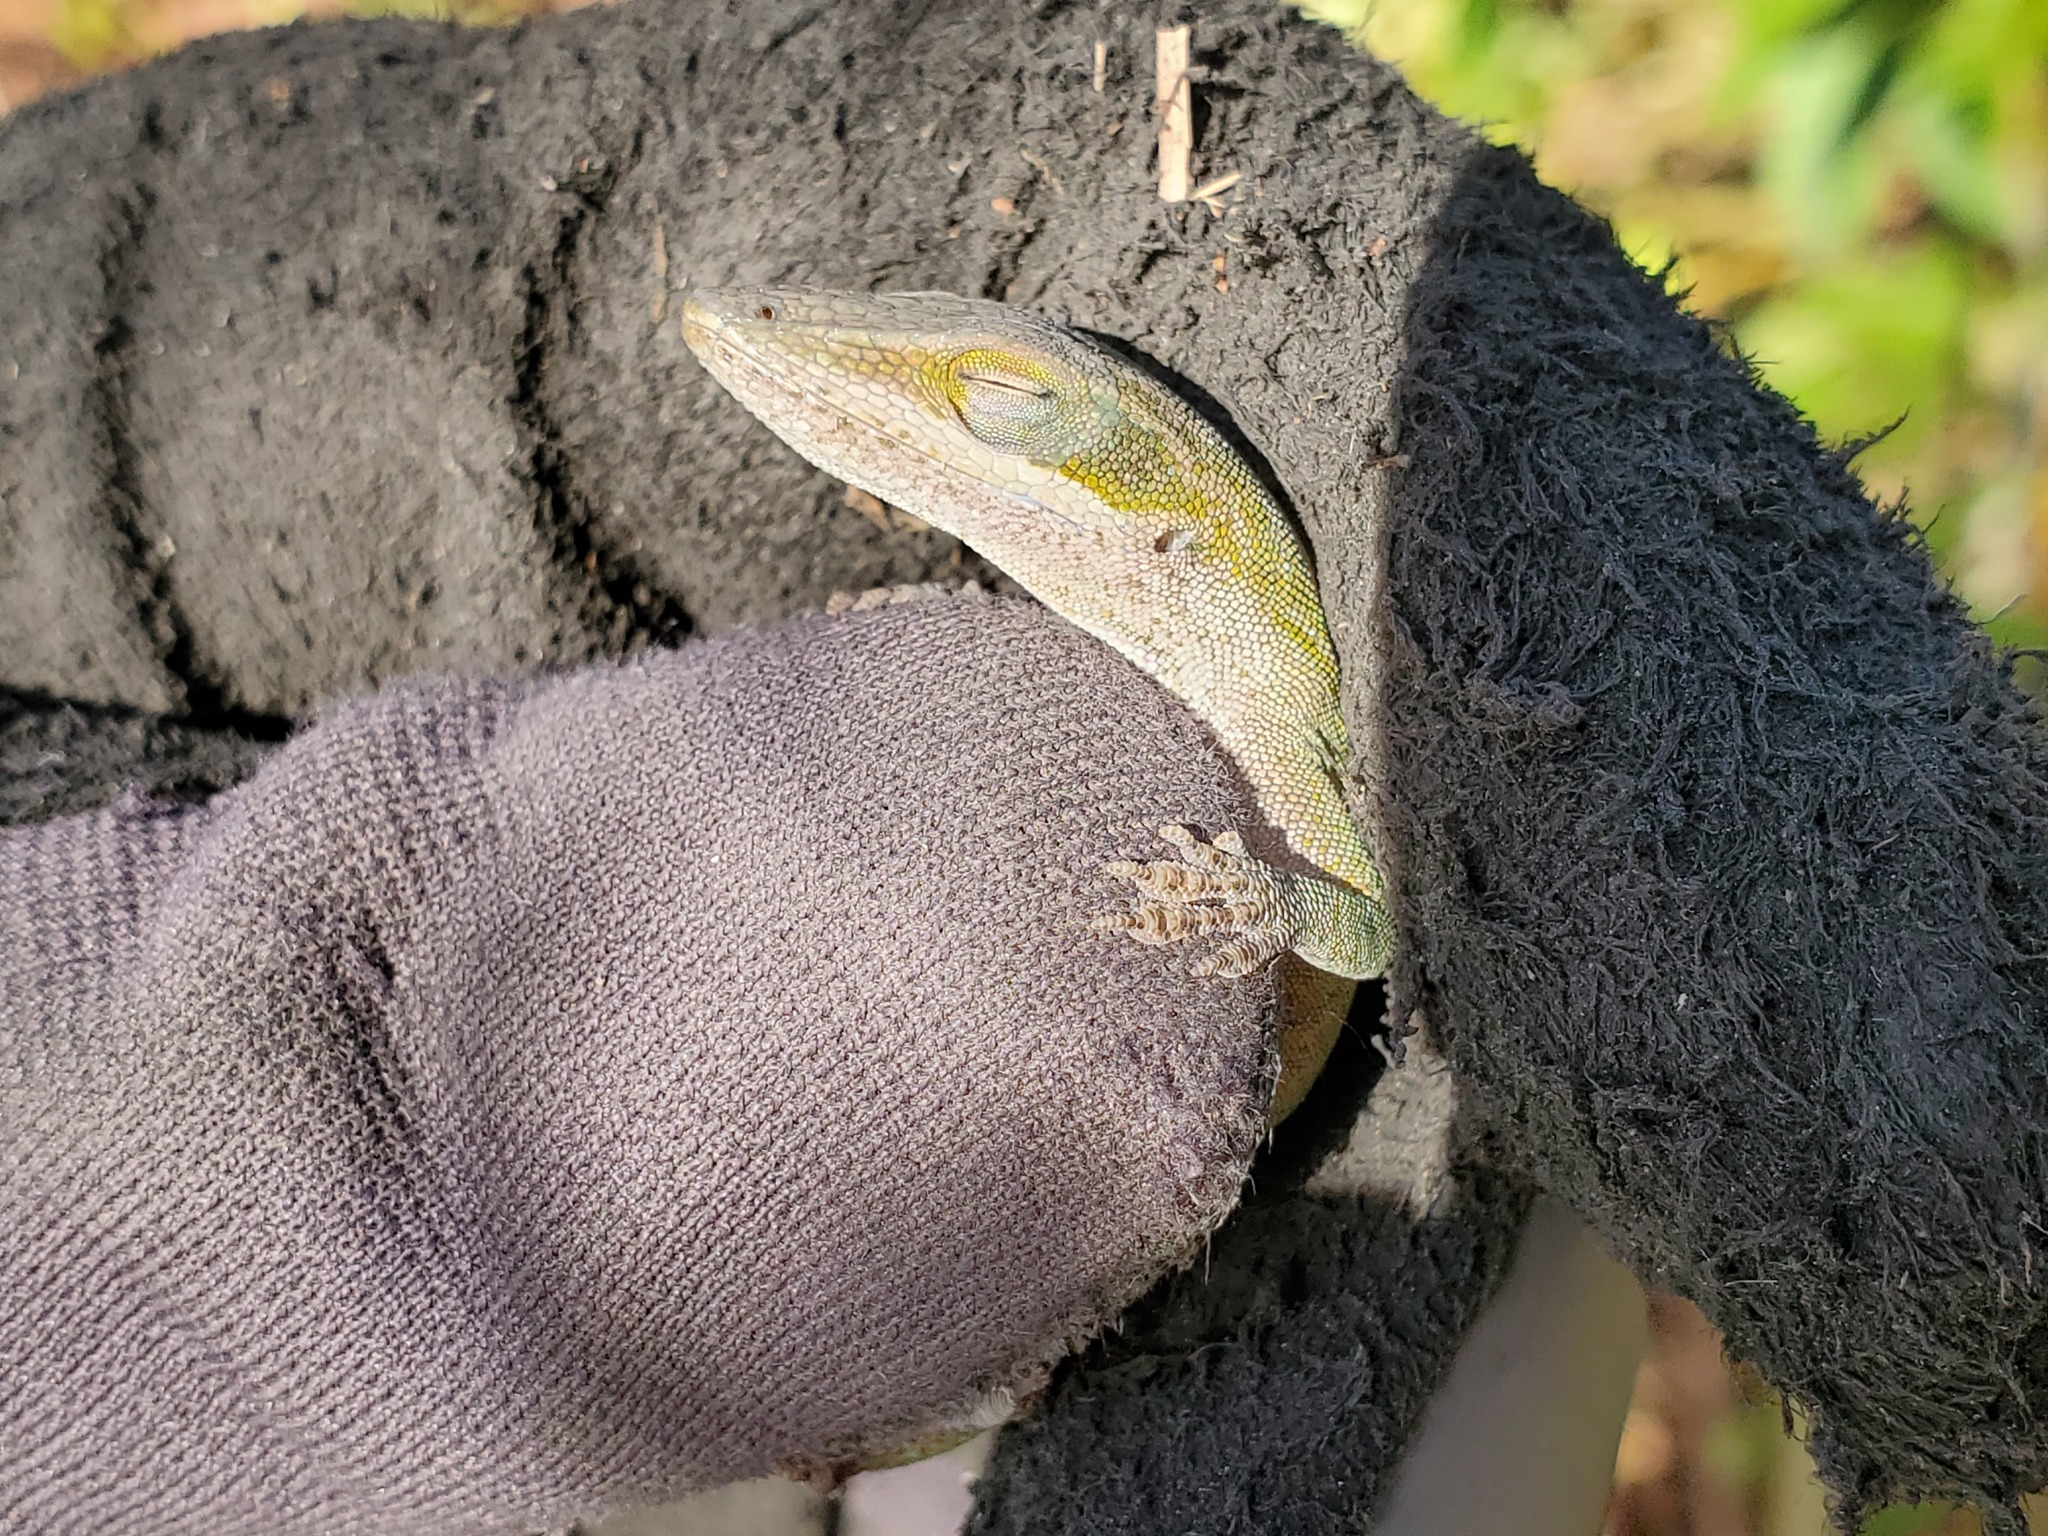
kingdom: Animalia
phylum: Chordata
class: Squamata
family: Dactyloidae
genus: Anolis
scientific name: Anolis carolinensis
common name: Green anole
